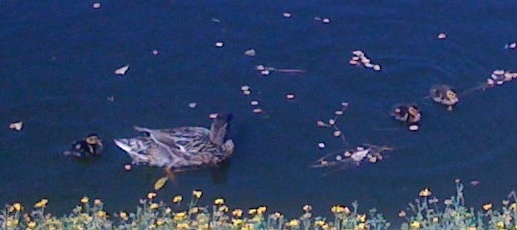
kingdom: Animalia
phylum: Chordata
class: Aves
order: Anseriformes
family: Anatidae
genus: Anas
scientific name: Anas platyrhynchos
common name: Mallard
